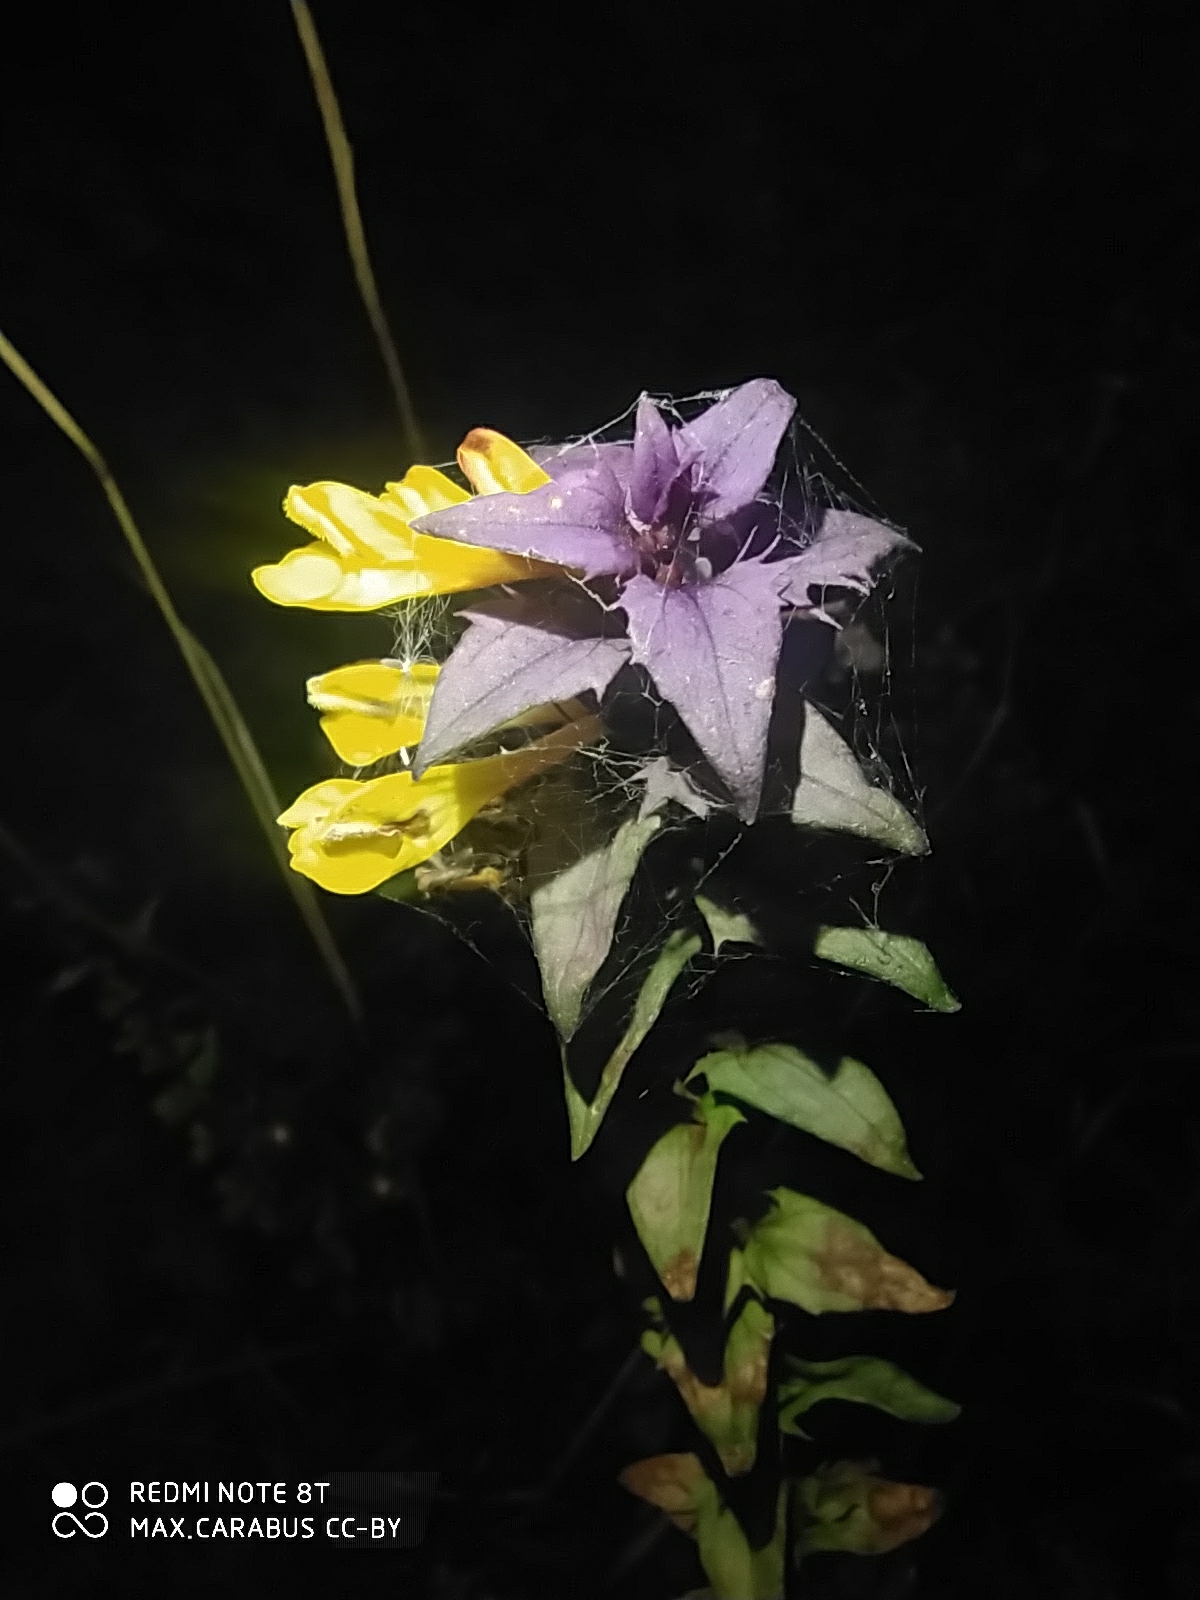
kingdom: Plantae
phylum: Tracheophyta
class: Magnoliopsida
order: Lamiales
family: Orobanchaceae
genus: Melampyrum
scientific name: Melampyrum nemorosum
